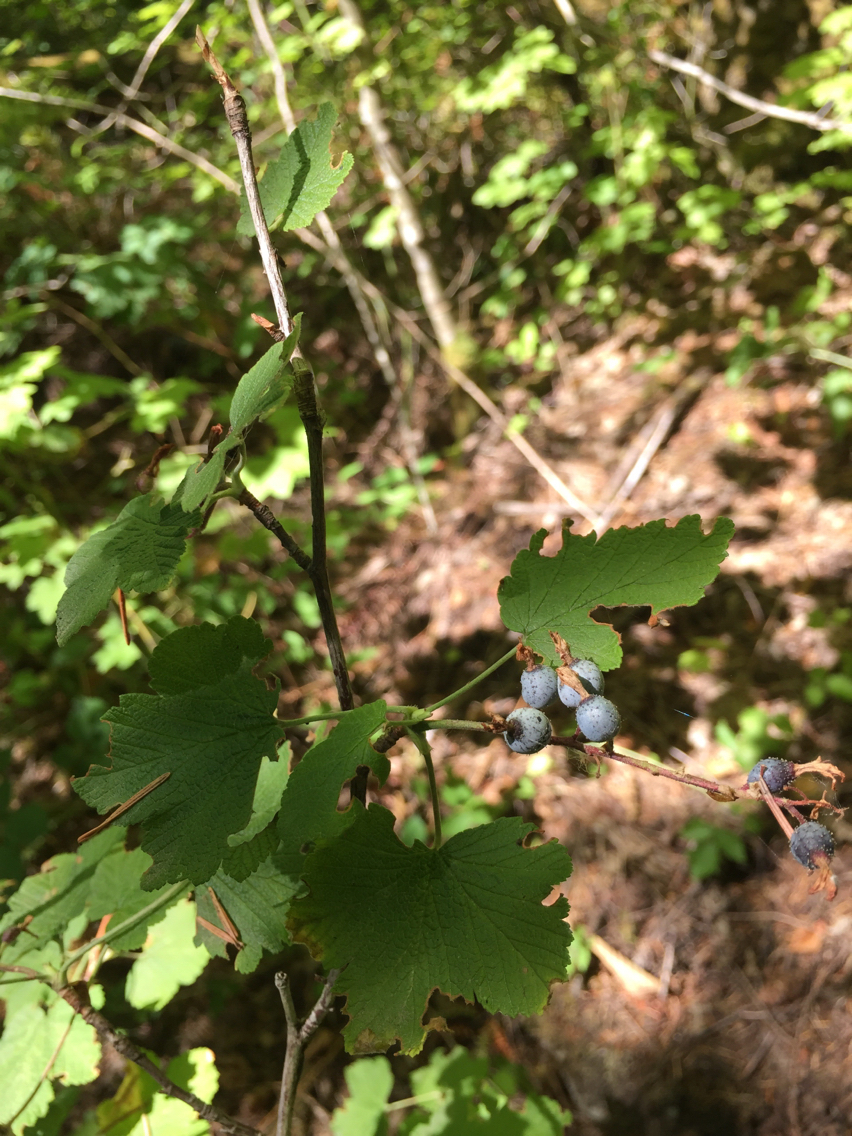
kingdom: Plantae
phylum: Tracheophyta
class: Magnoliopsida
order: Saxifragales
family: Grossulariaceae
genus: Ribes
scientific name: Ribes sanguineum
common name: Flowering currant
